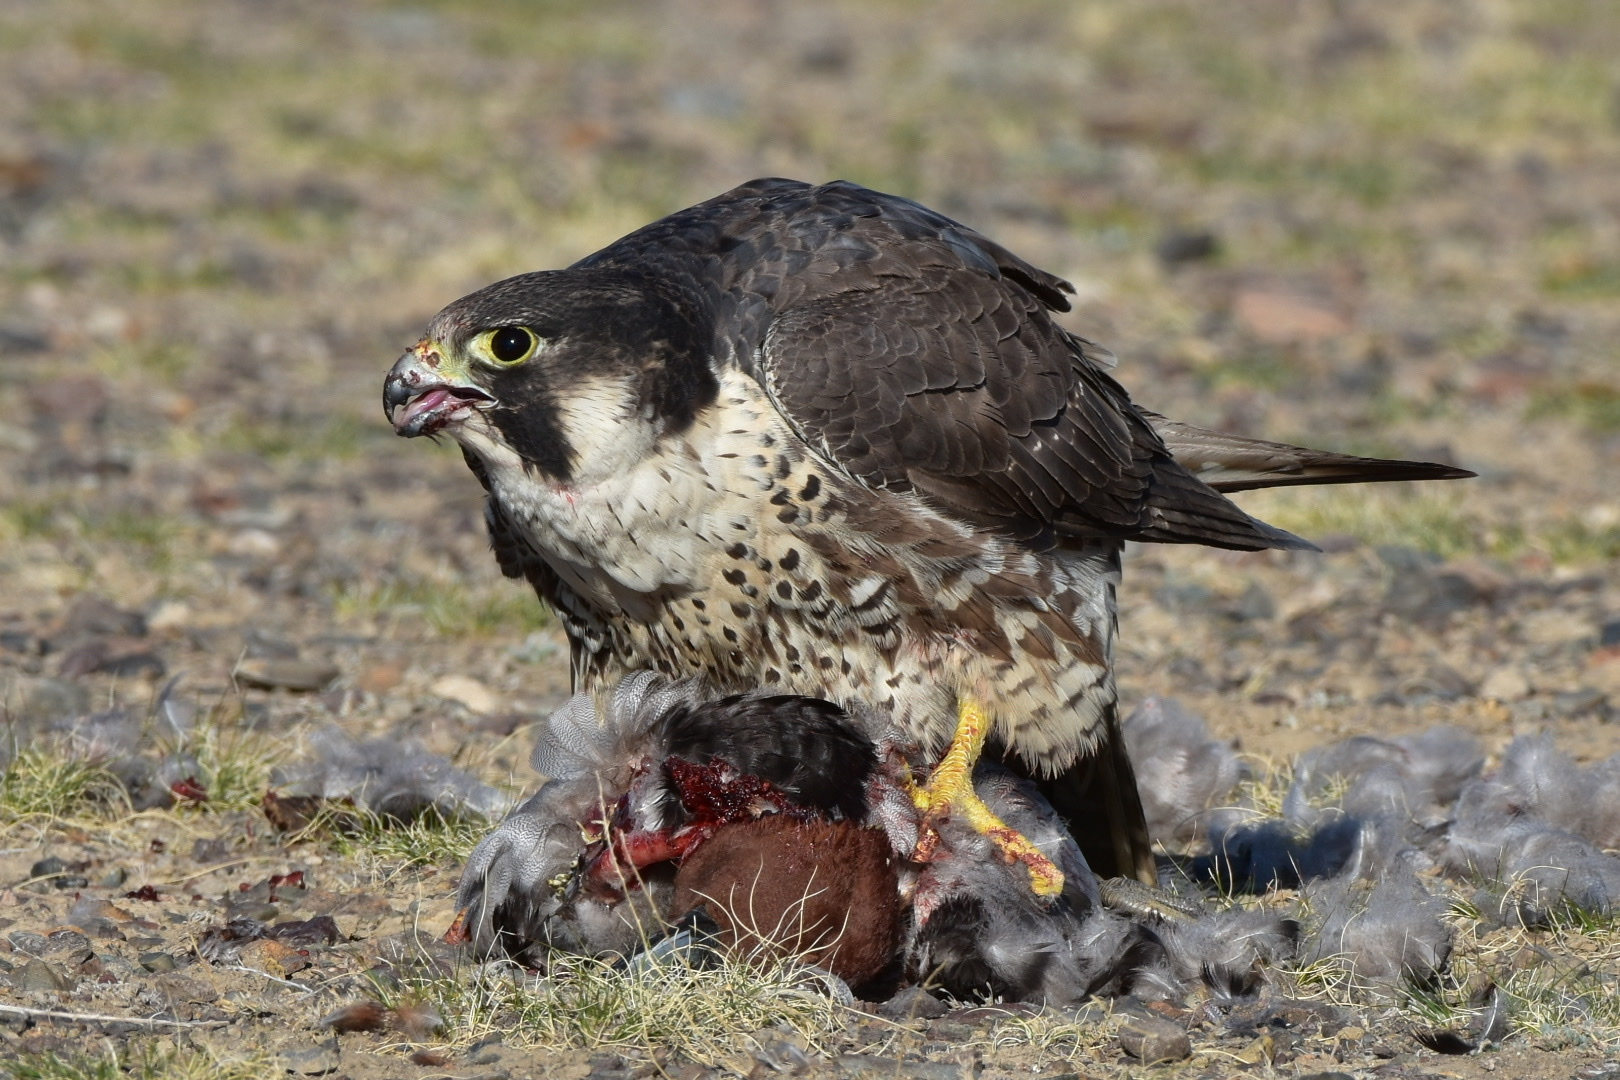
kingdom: Animalia
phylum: Chordata
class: Aves
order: Falconiformes
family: Falconidae
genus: Falco
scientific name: Falco peregrinus
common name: Peregrine falcon
